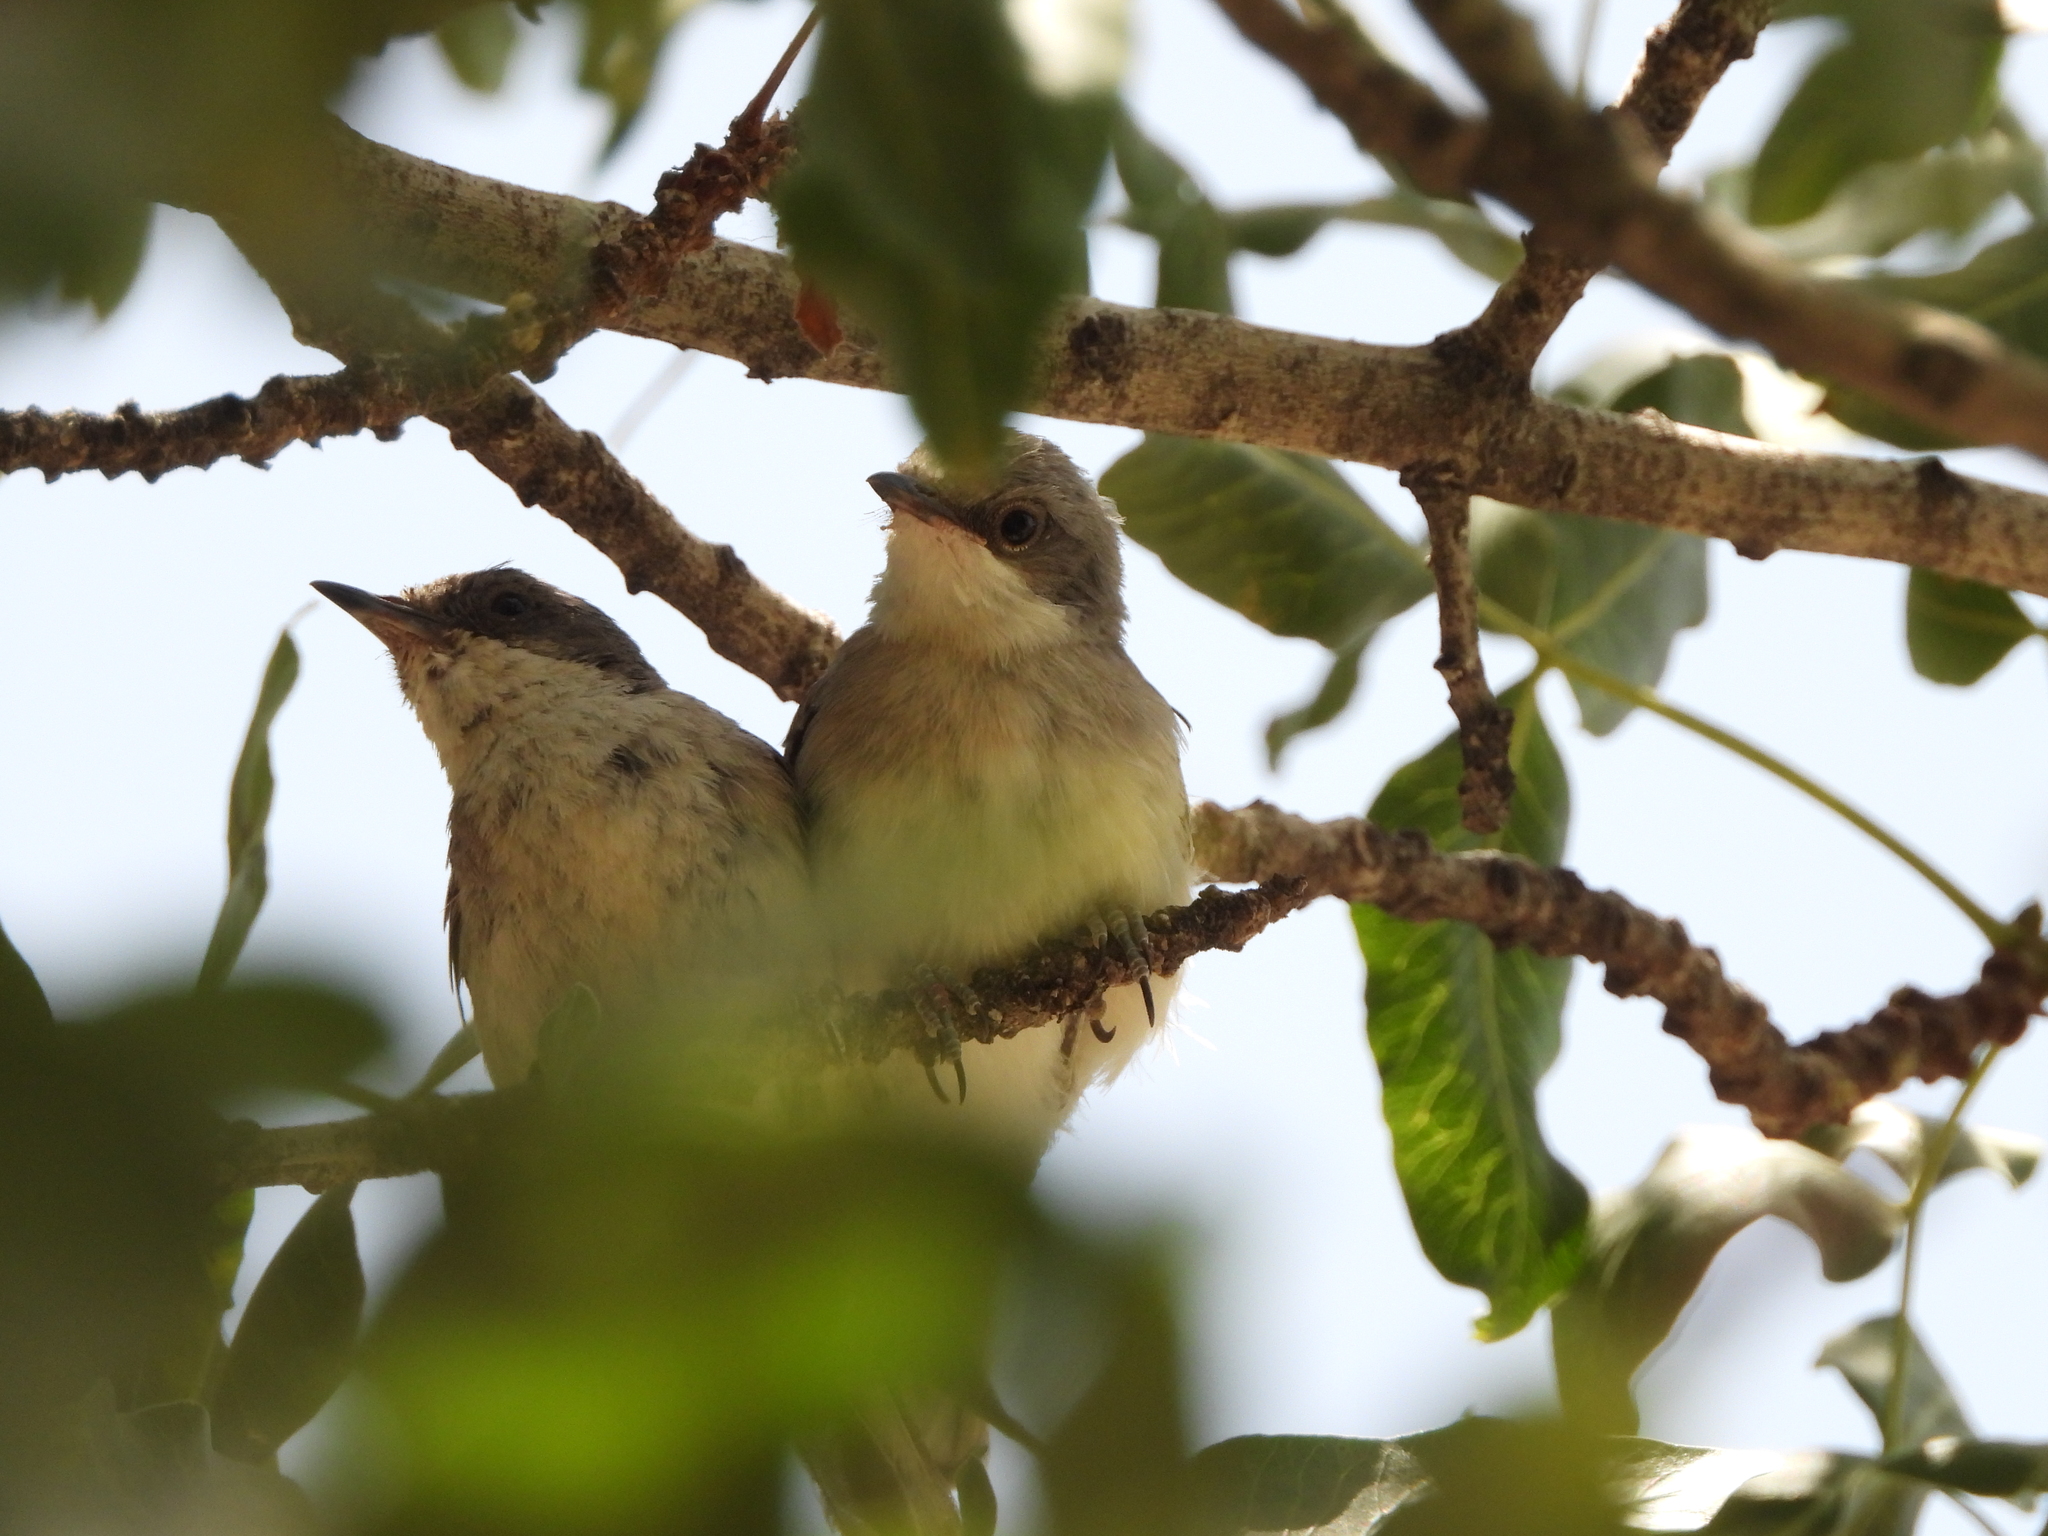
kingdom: Animalia
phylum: Chordata
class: Aves
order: Passeriformes
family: Sylviidae
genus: Sylvia
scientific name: Sylvia crassirostris
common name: Eastern orphean warbler
